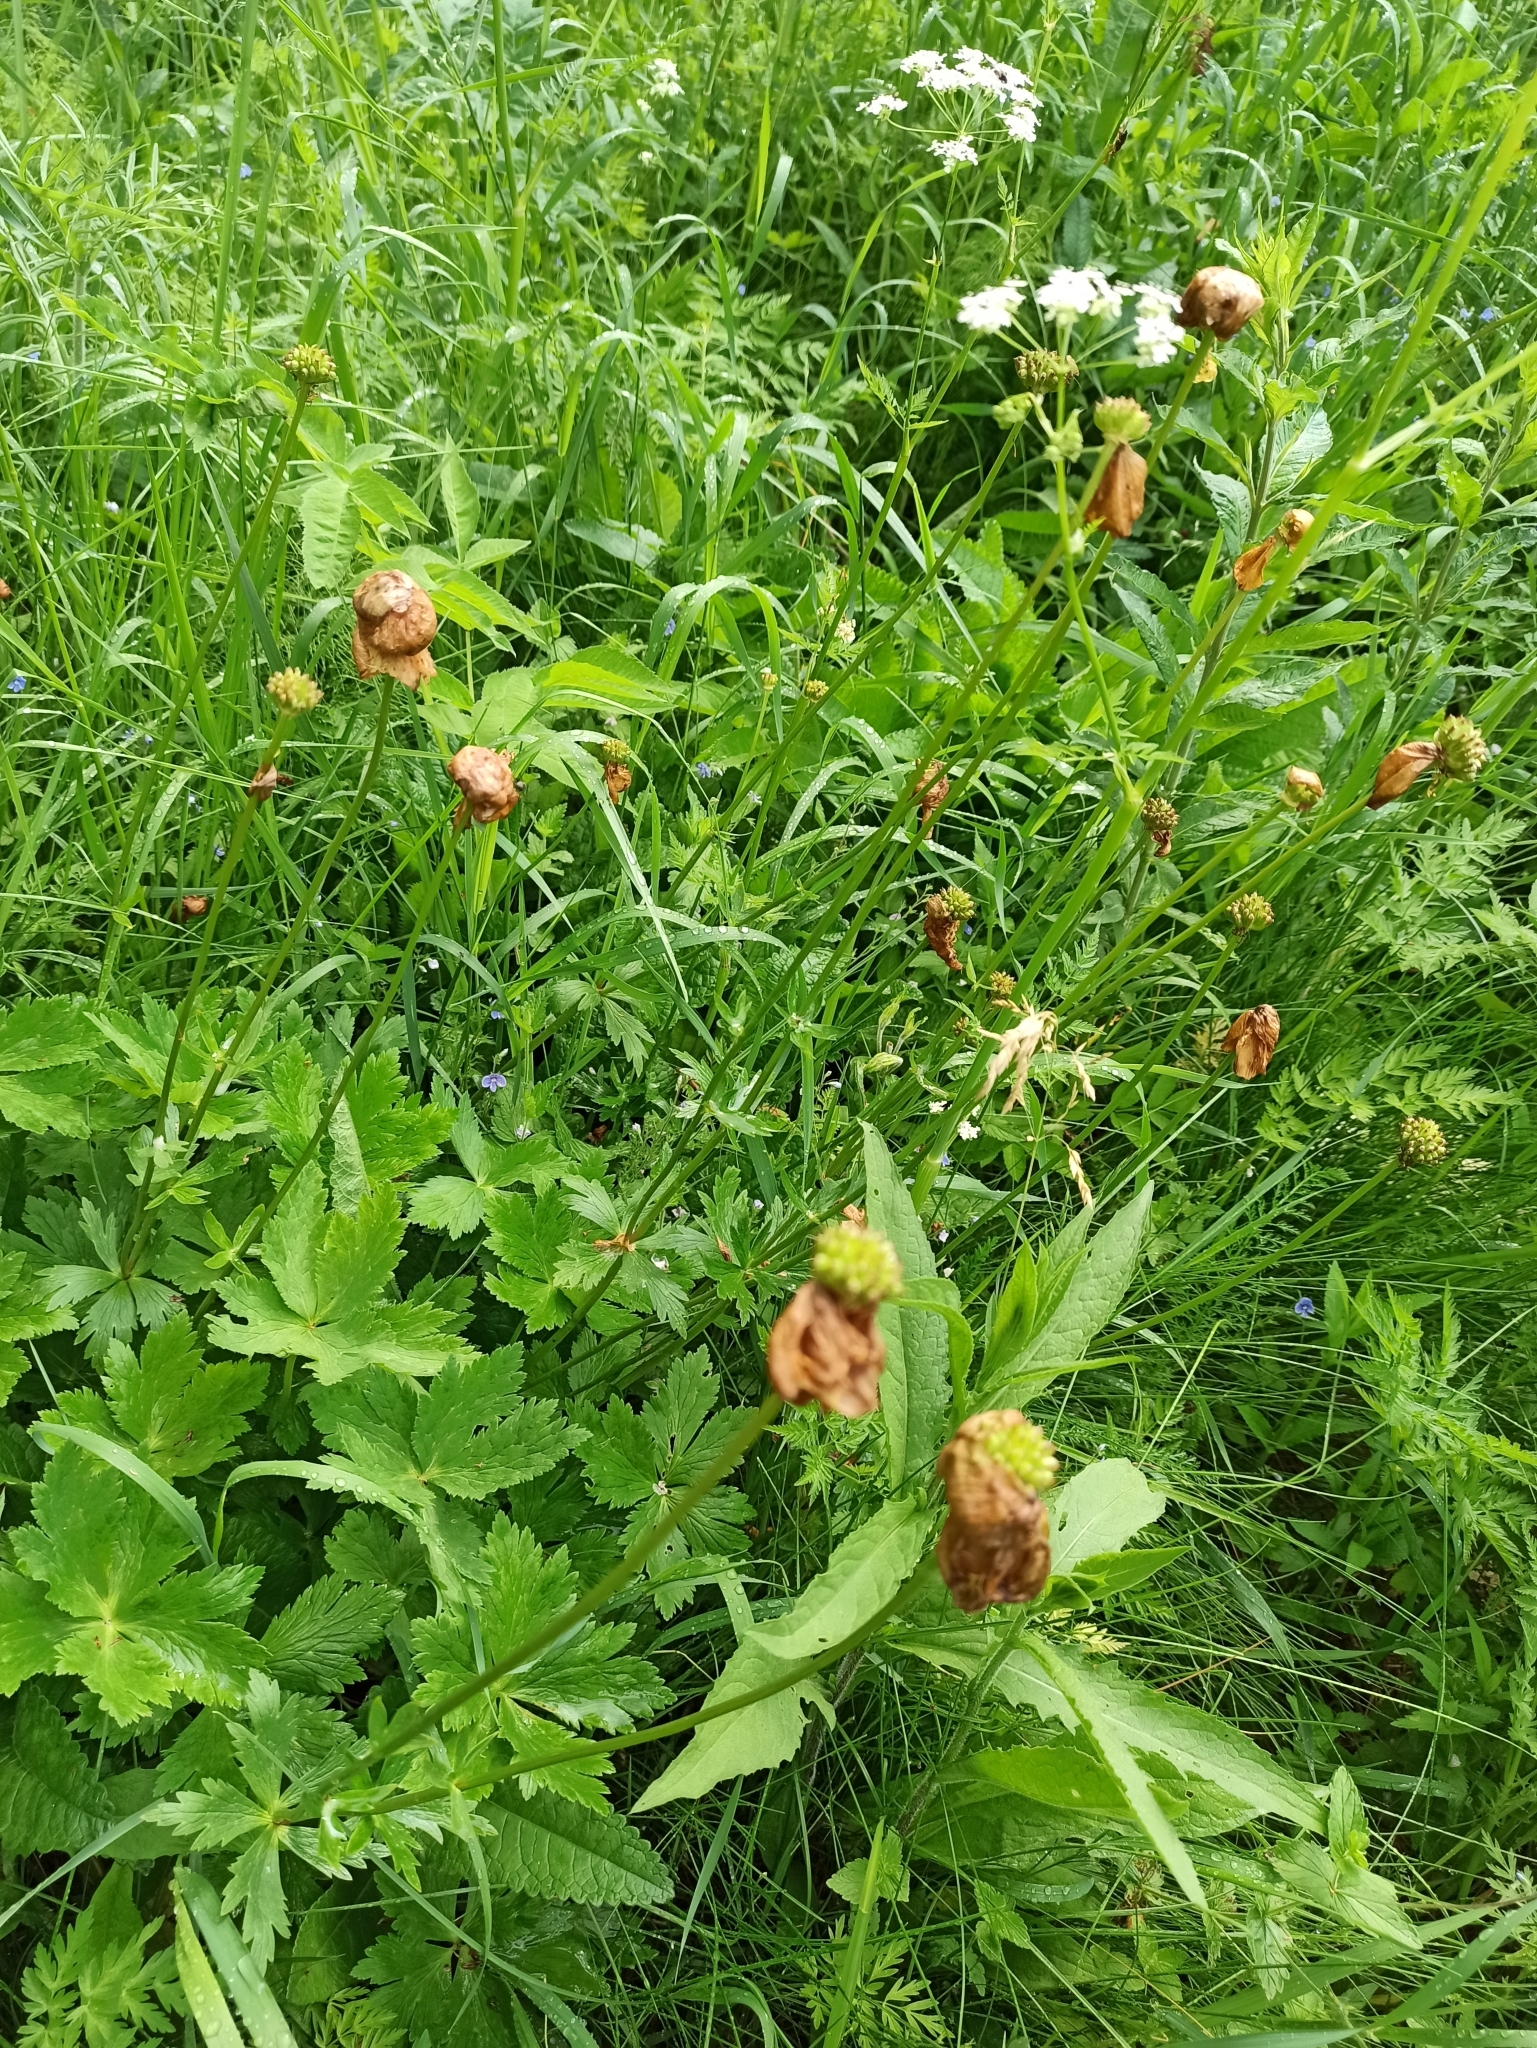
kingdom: Plantae
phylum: Tracheophyta
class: Magnoliopsida
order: Ranunculales
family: Ranunculaceae
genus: Trollius
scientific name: Trollius europaeus
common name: European globeflower
